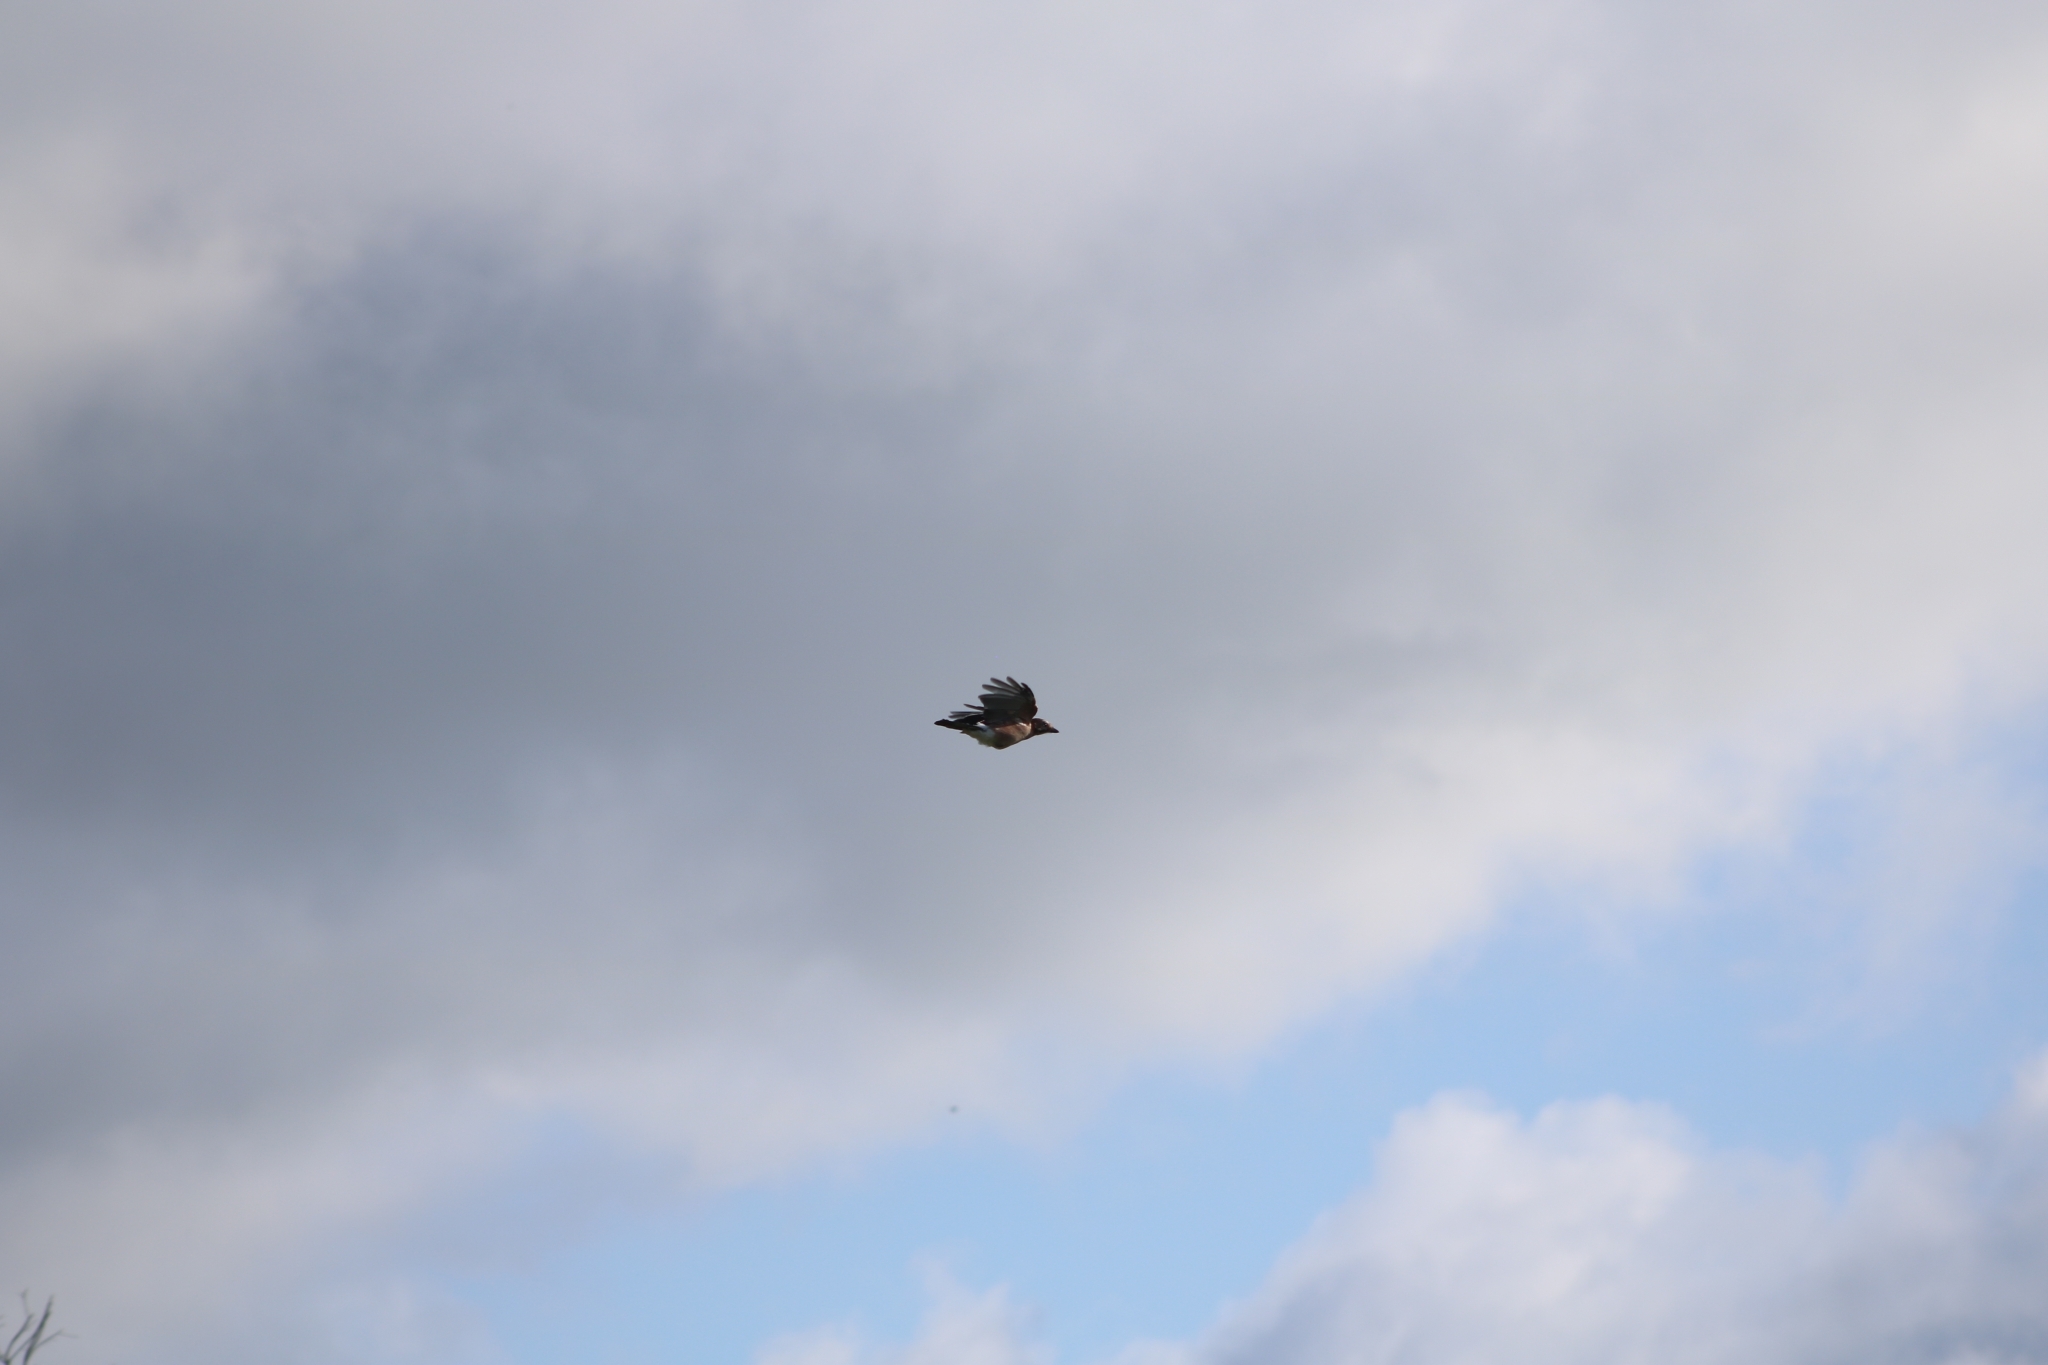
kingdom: Animalia
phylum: Chordata
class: Aves
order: Passeriformes
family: Corvidae
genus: Corvus
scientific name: Corvus cornix
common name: Hooded crow
